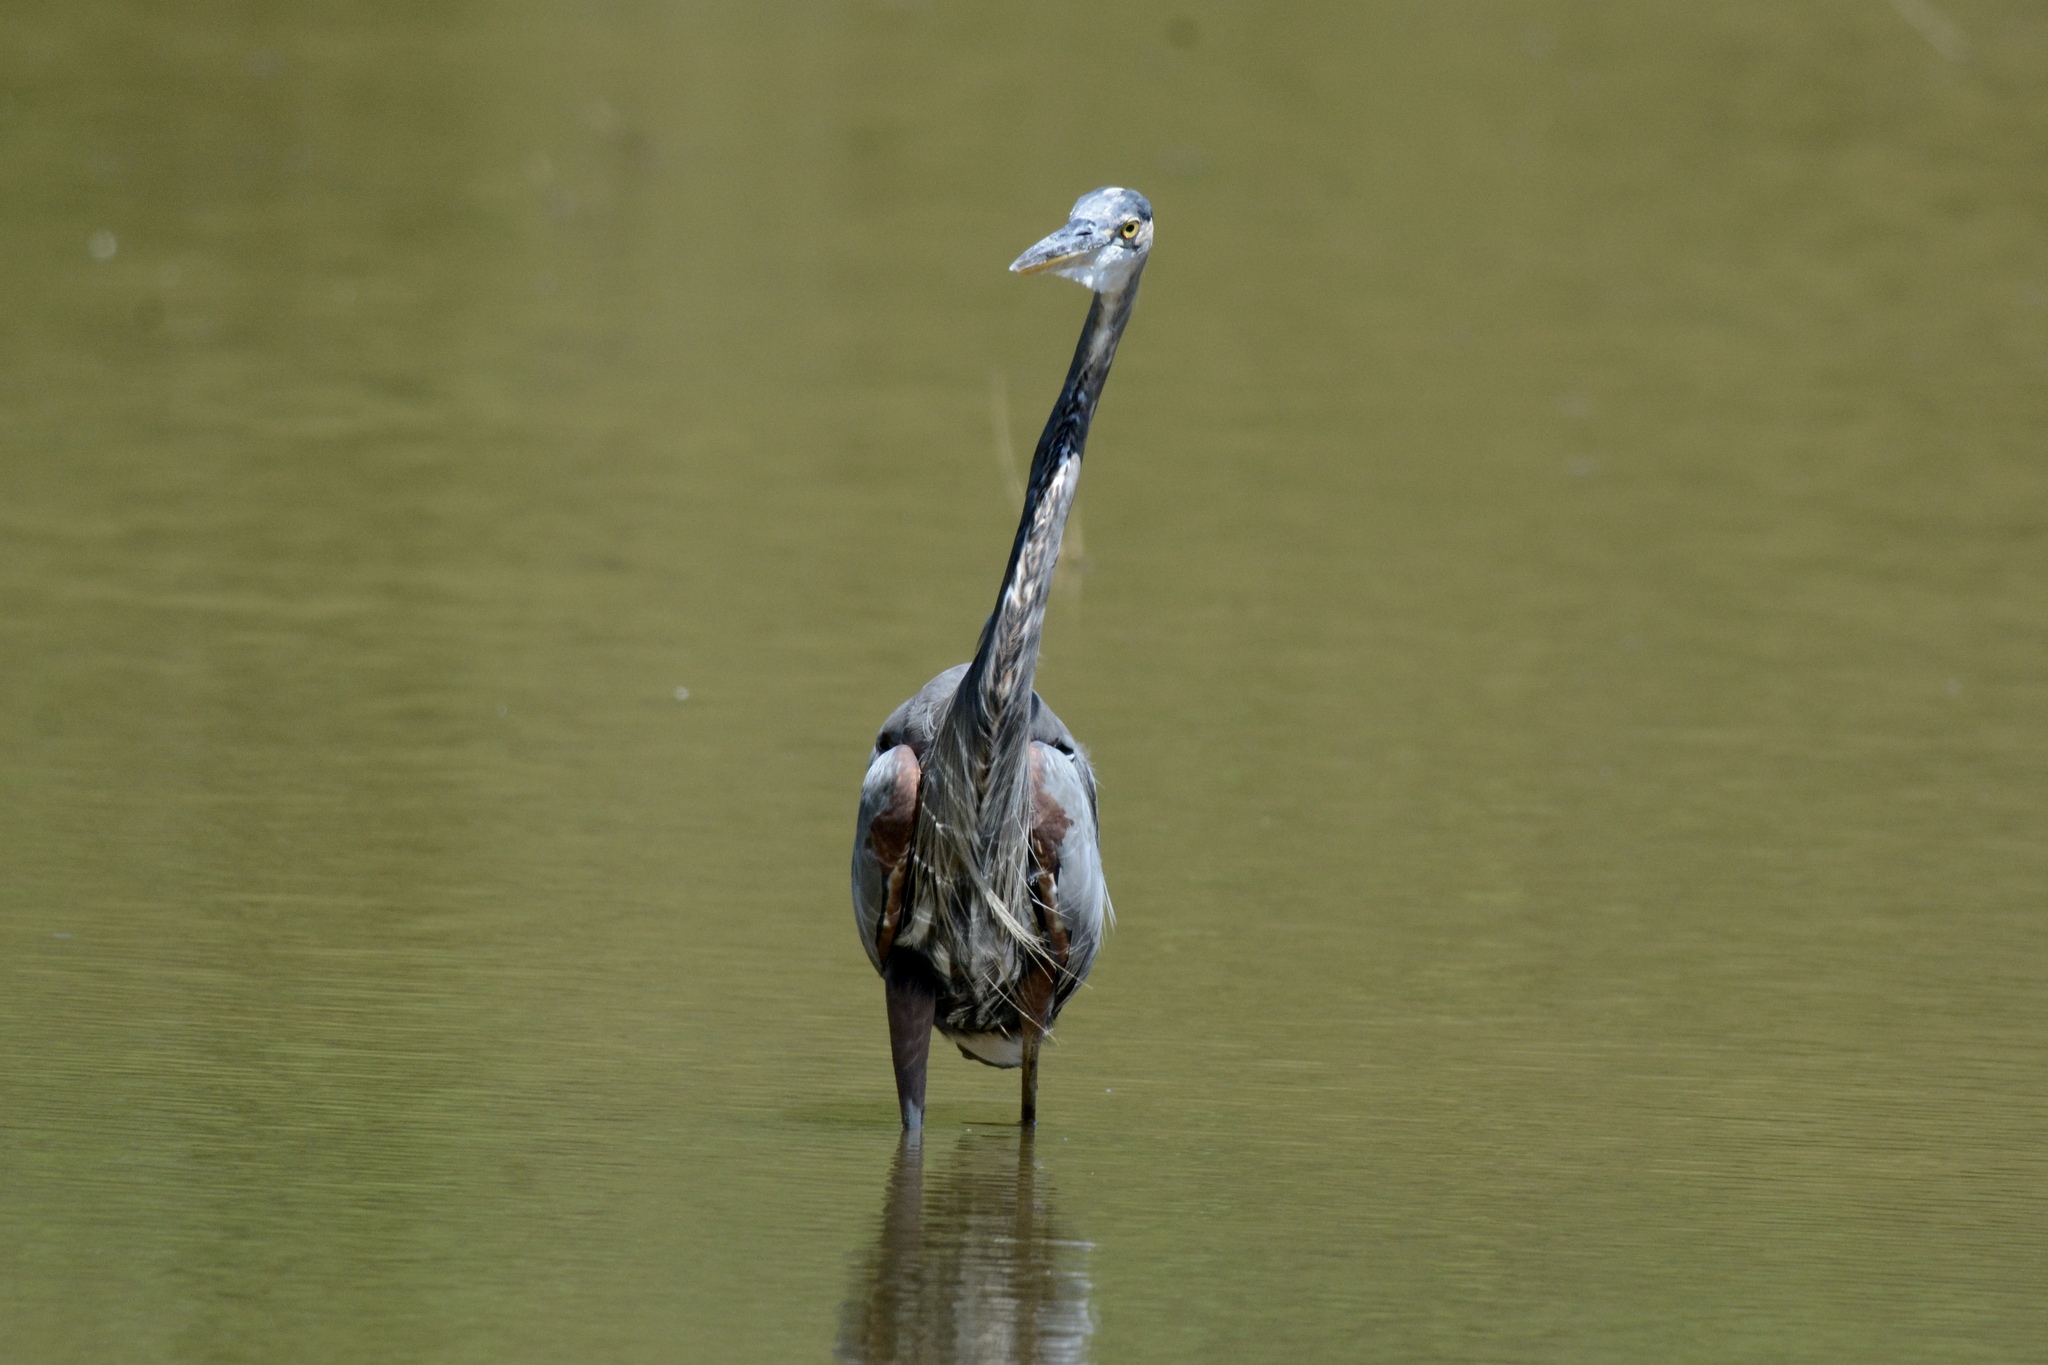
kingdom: Animalia
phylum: Chordata
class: Aves
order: Pelecaniformes
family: Ardeidae
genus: Ardea
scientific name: Ardea herodias
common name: Great blue heron
